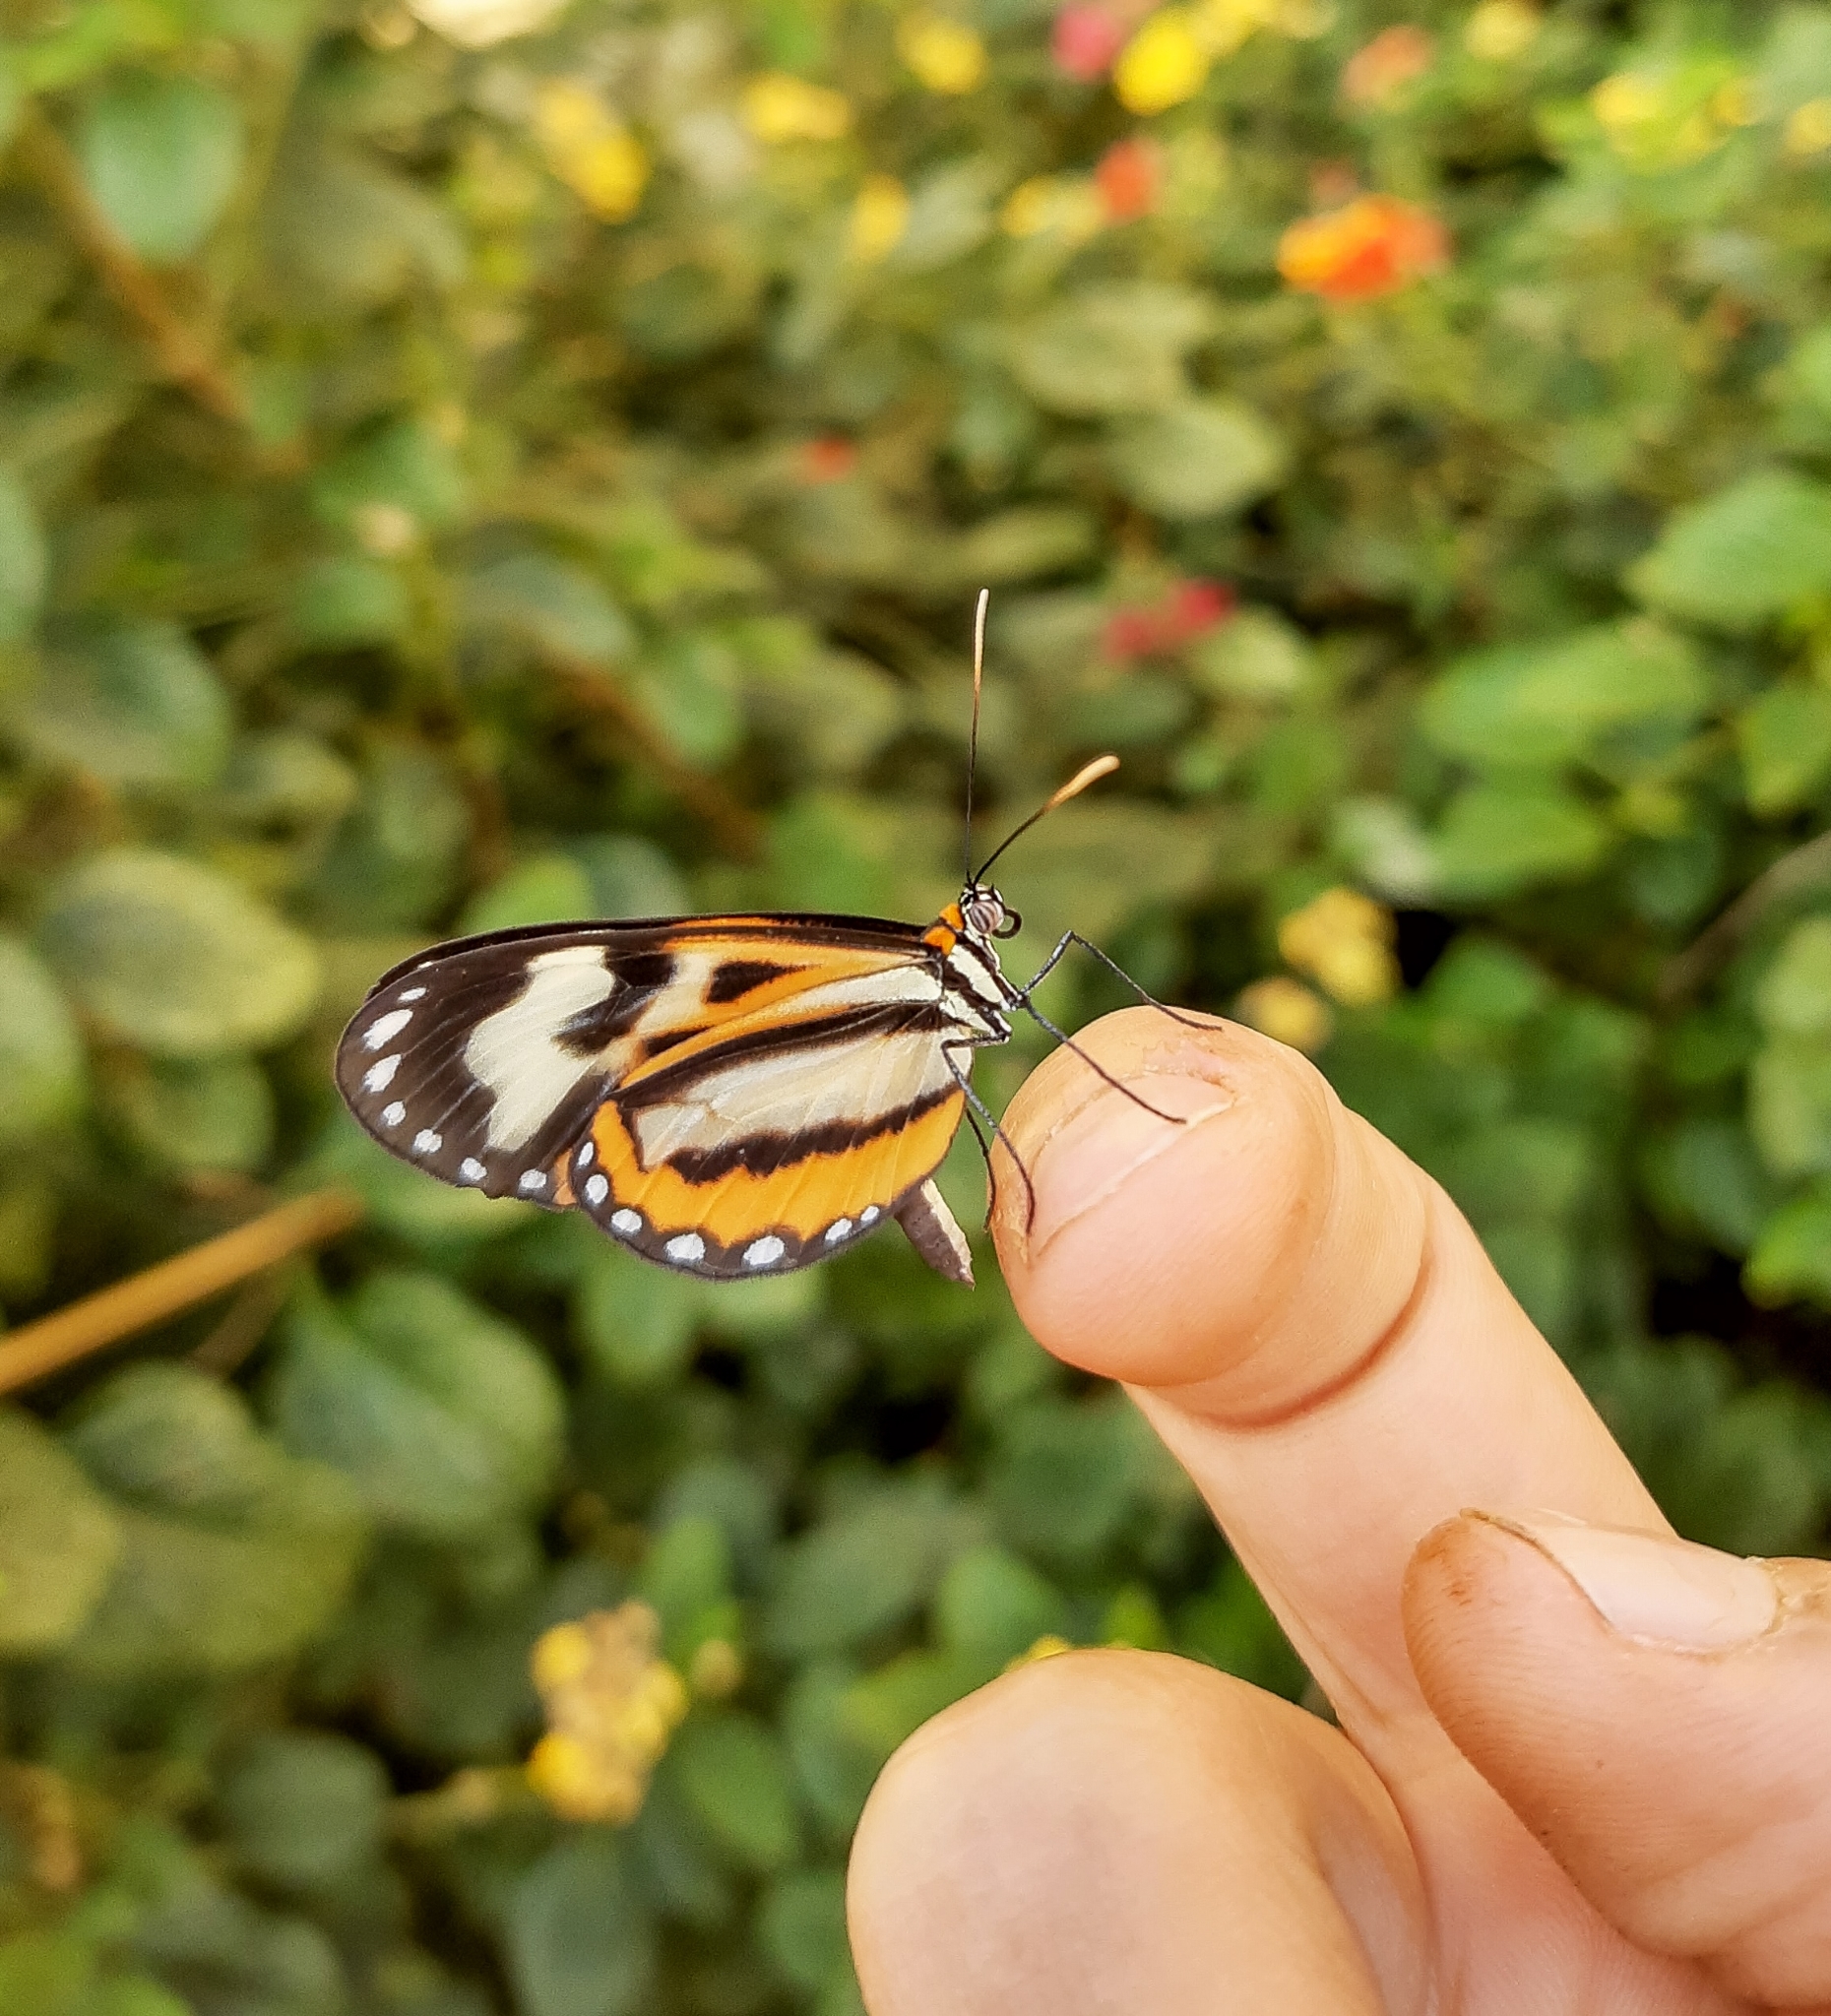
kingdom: Animalia
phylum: Arthropoda
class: Insecta
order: Lepidoptera
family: Nymphalidae
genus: Hypothyris
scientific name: Hypothyris euclea
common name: Euclea tigerwing
